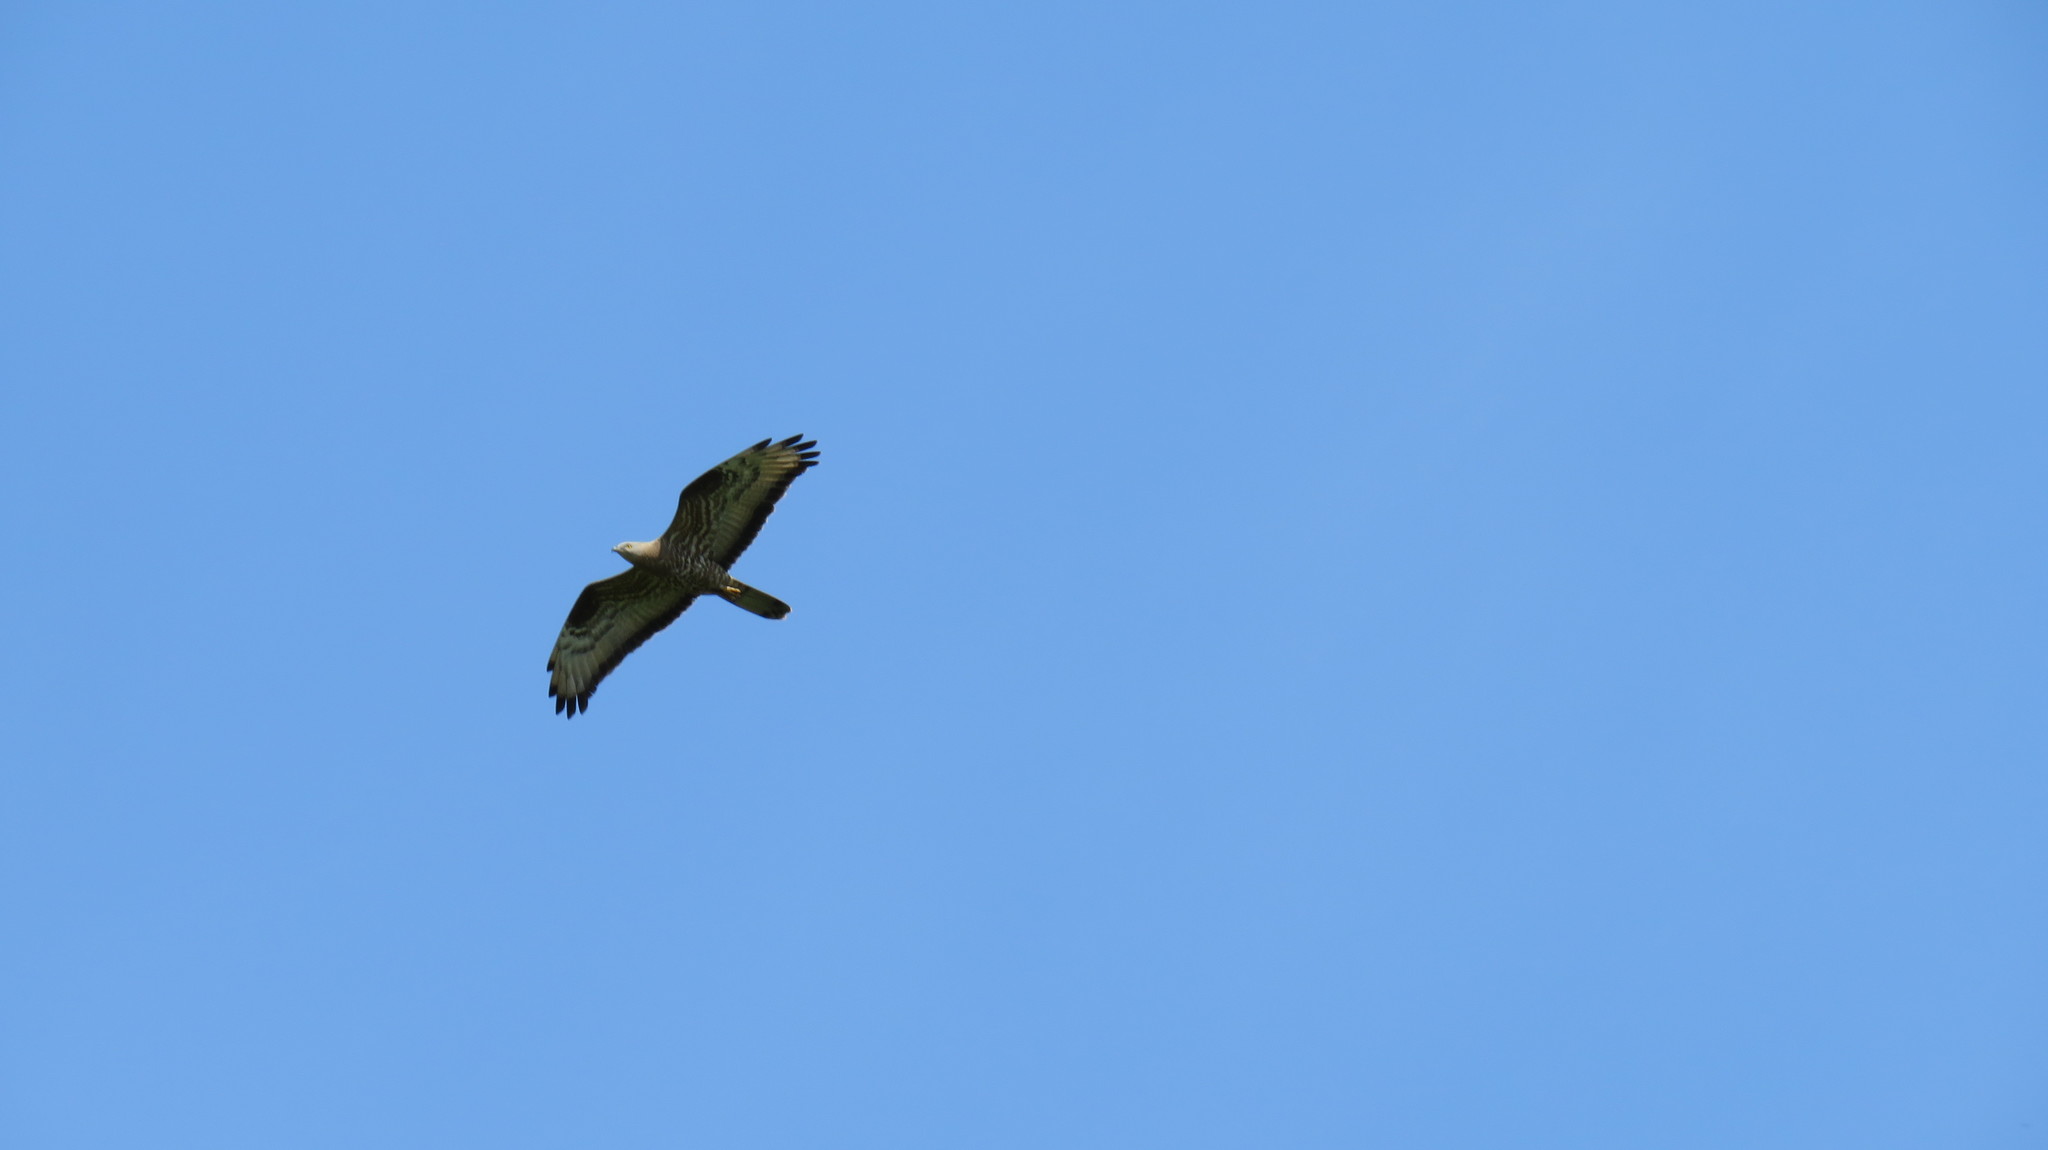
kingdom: Animalia
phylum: Chordata
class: Aves
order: Accipitriformes
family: Accipitridae
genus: Pernis
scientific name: Pernis apivorus
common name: European honey buzzard
